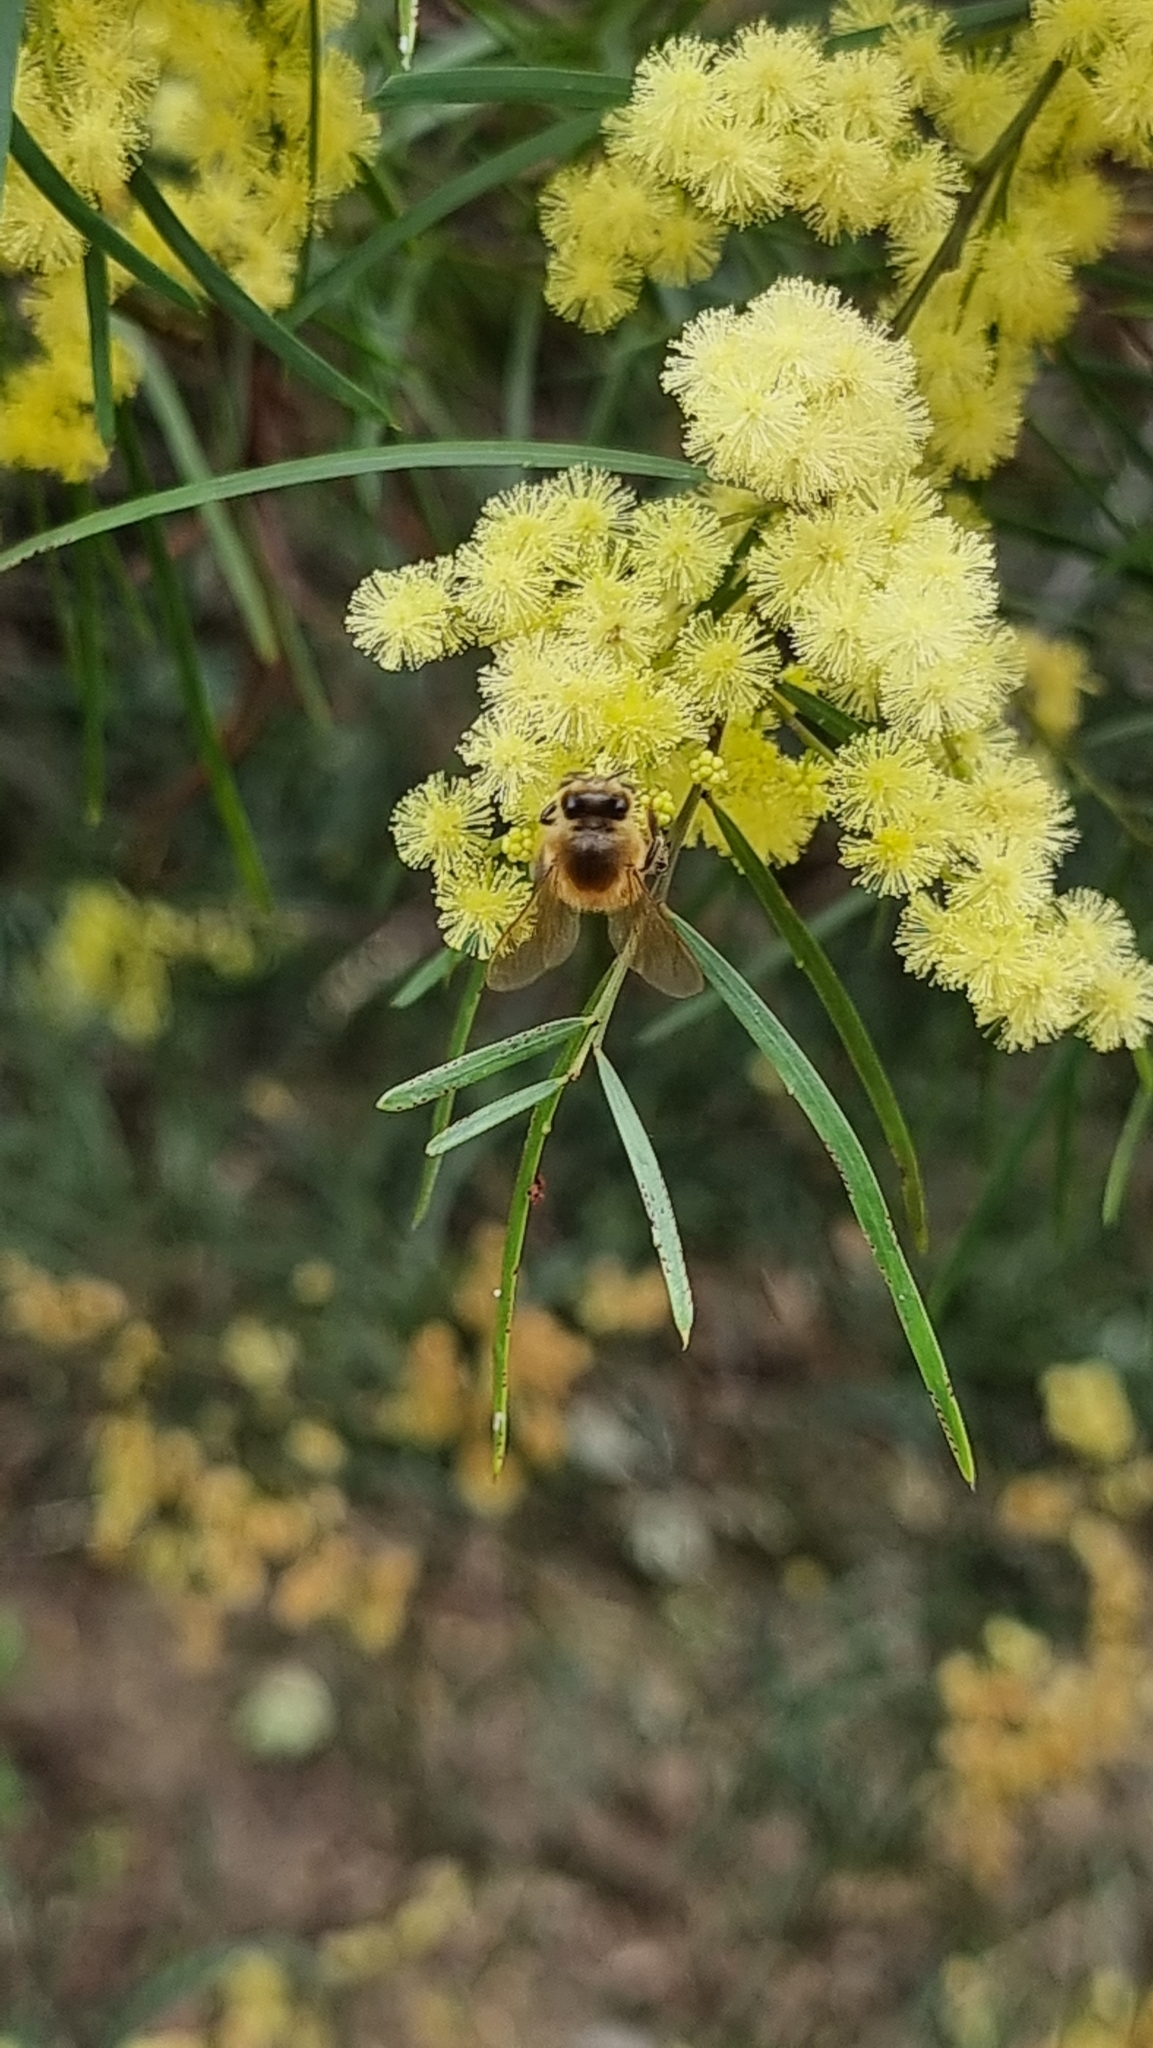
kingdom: Animalia
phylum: Arthropoda
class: Insecta
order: Hymenoptera
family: Apidae
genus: Apis
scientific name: Apis mellifera
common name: Honey bee
